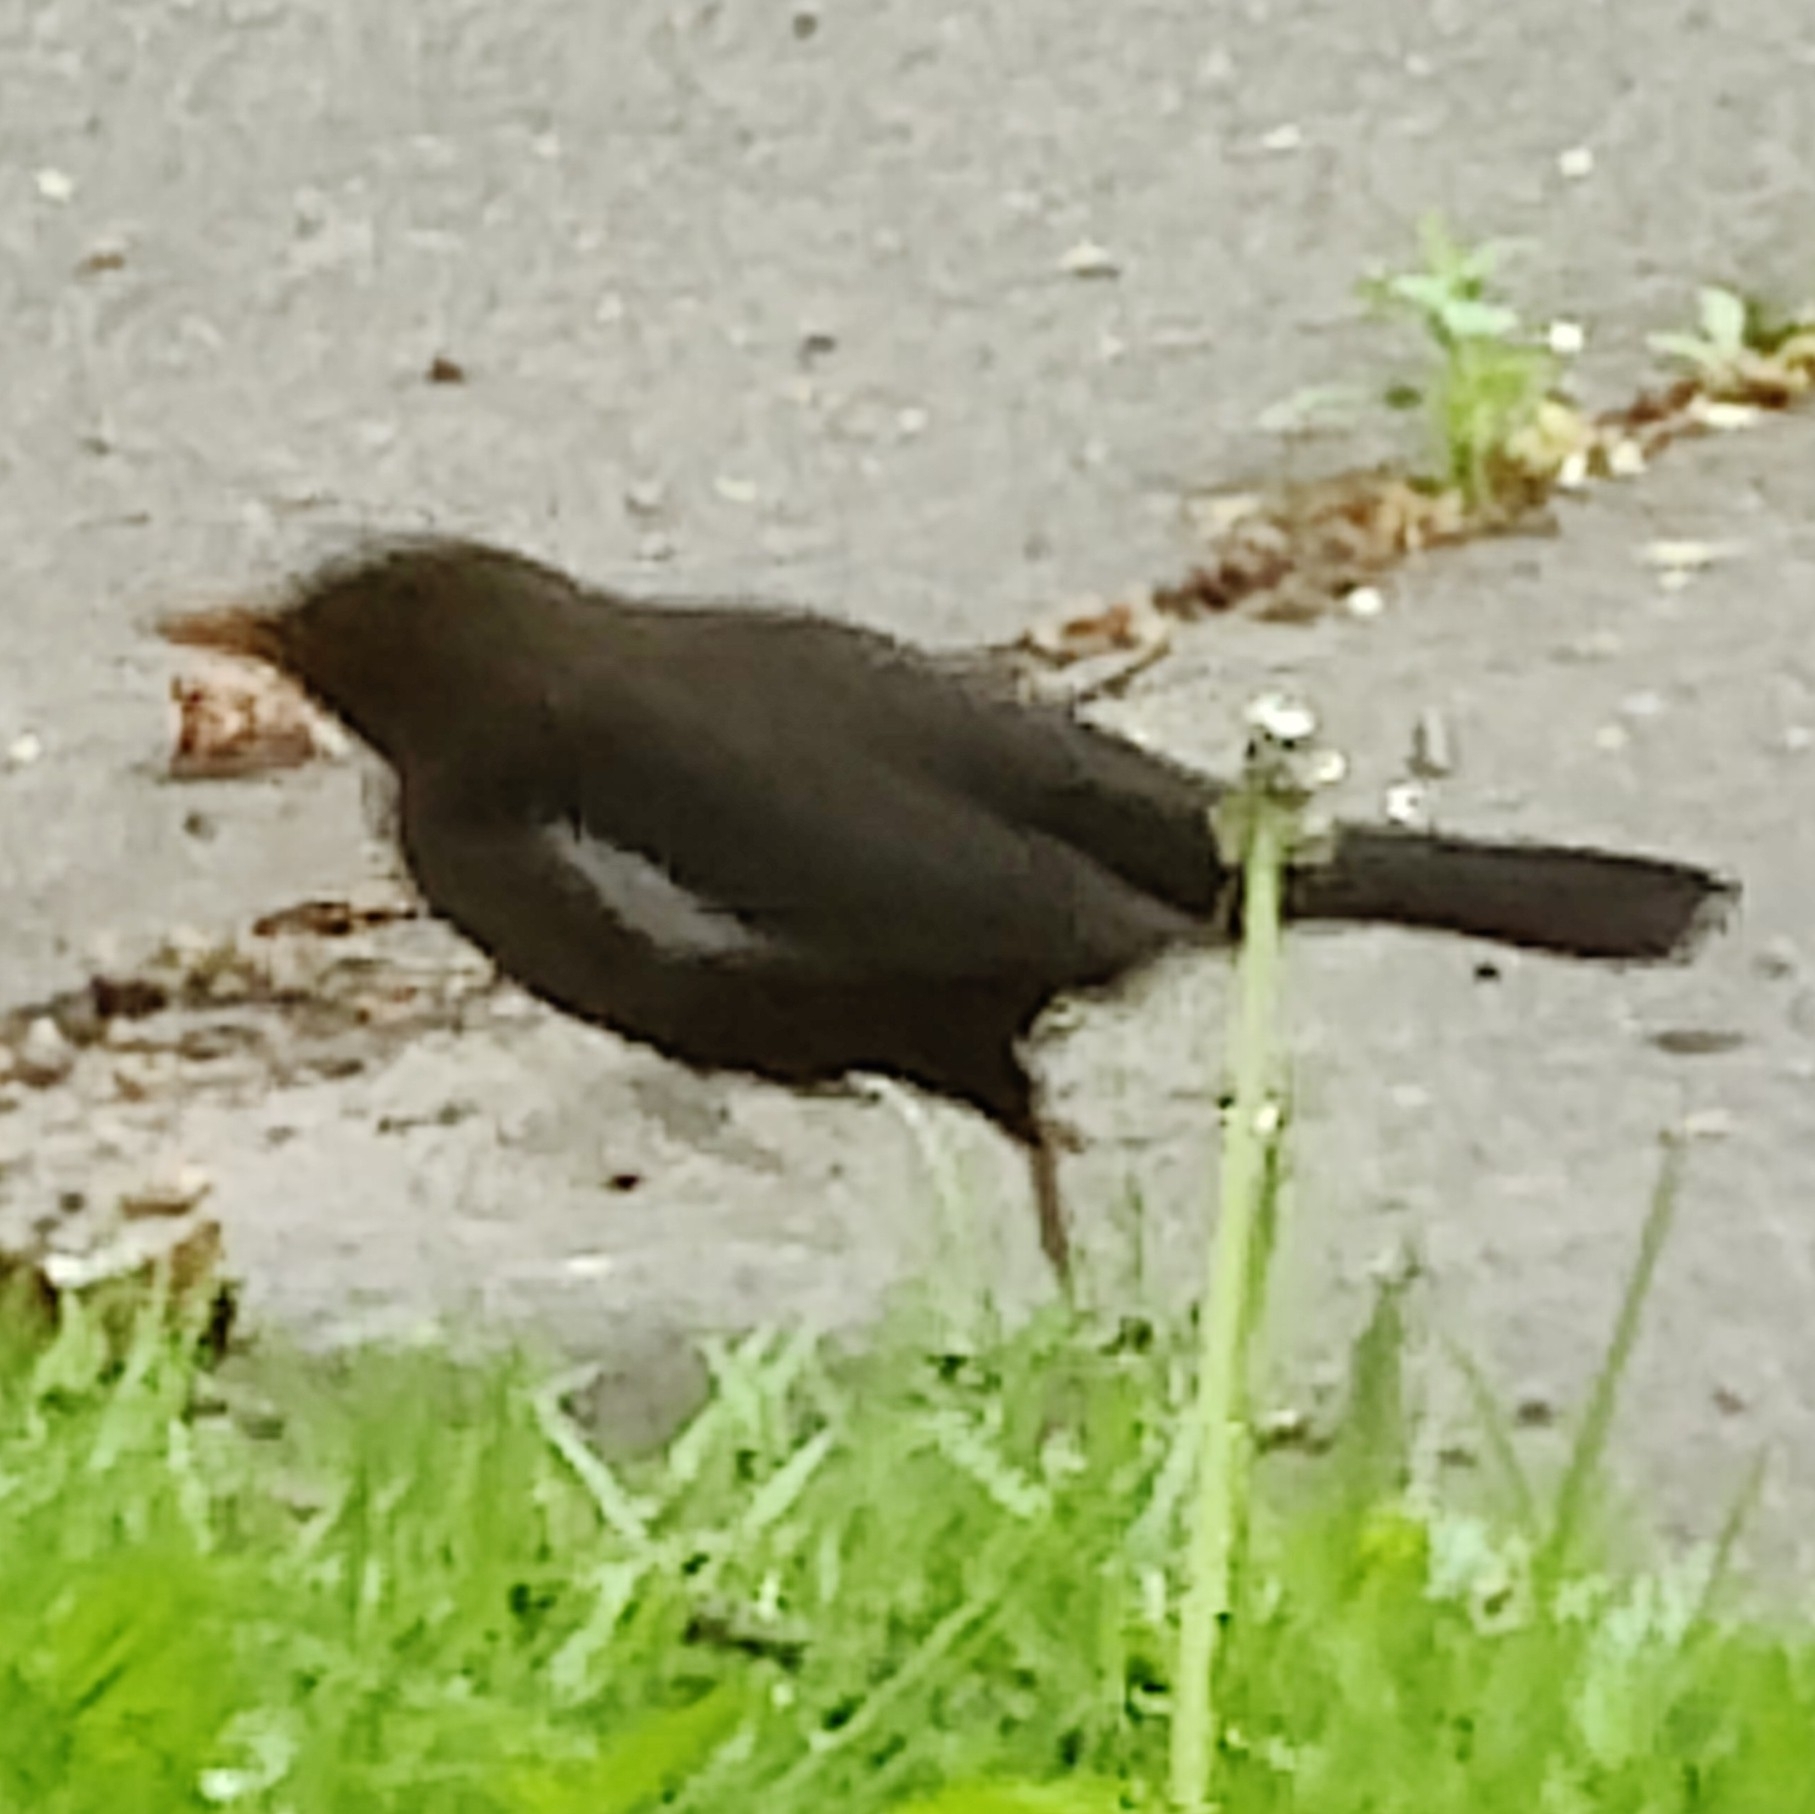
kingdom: Animalia
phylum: Chordata
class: Aves
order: Passeriformes
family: Turdidae
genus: Turdus
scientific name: Turdus merula
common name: Common blackbird
